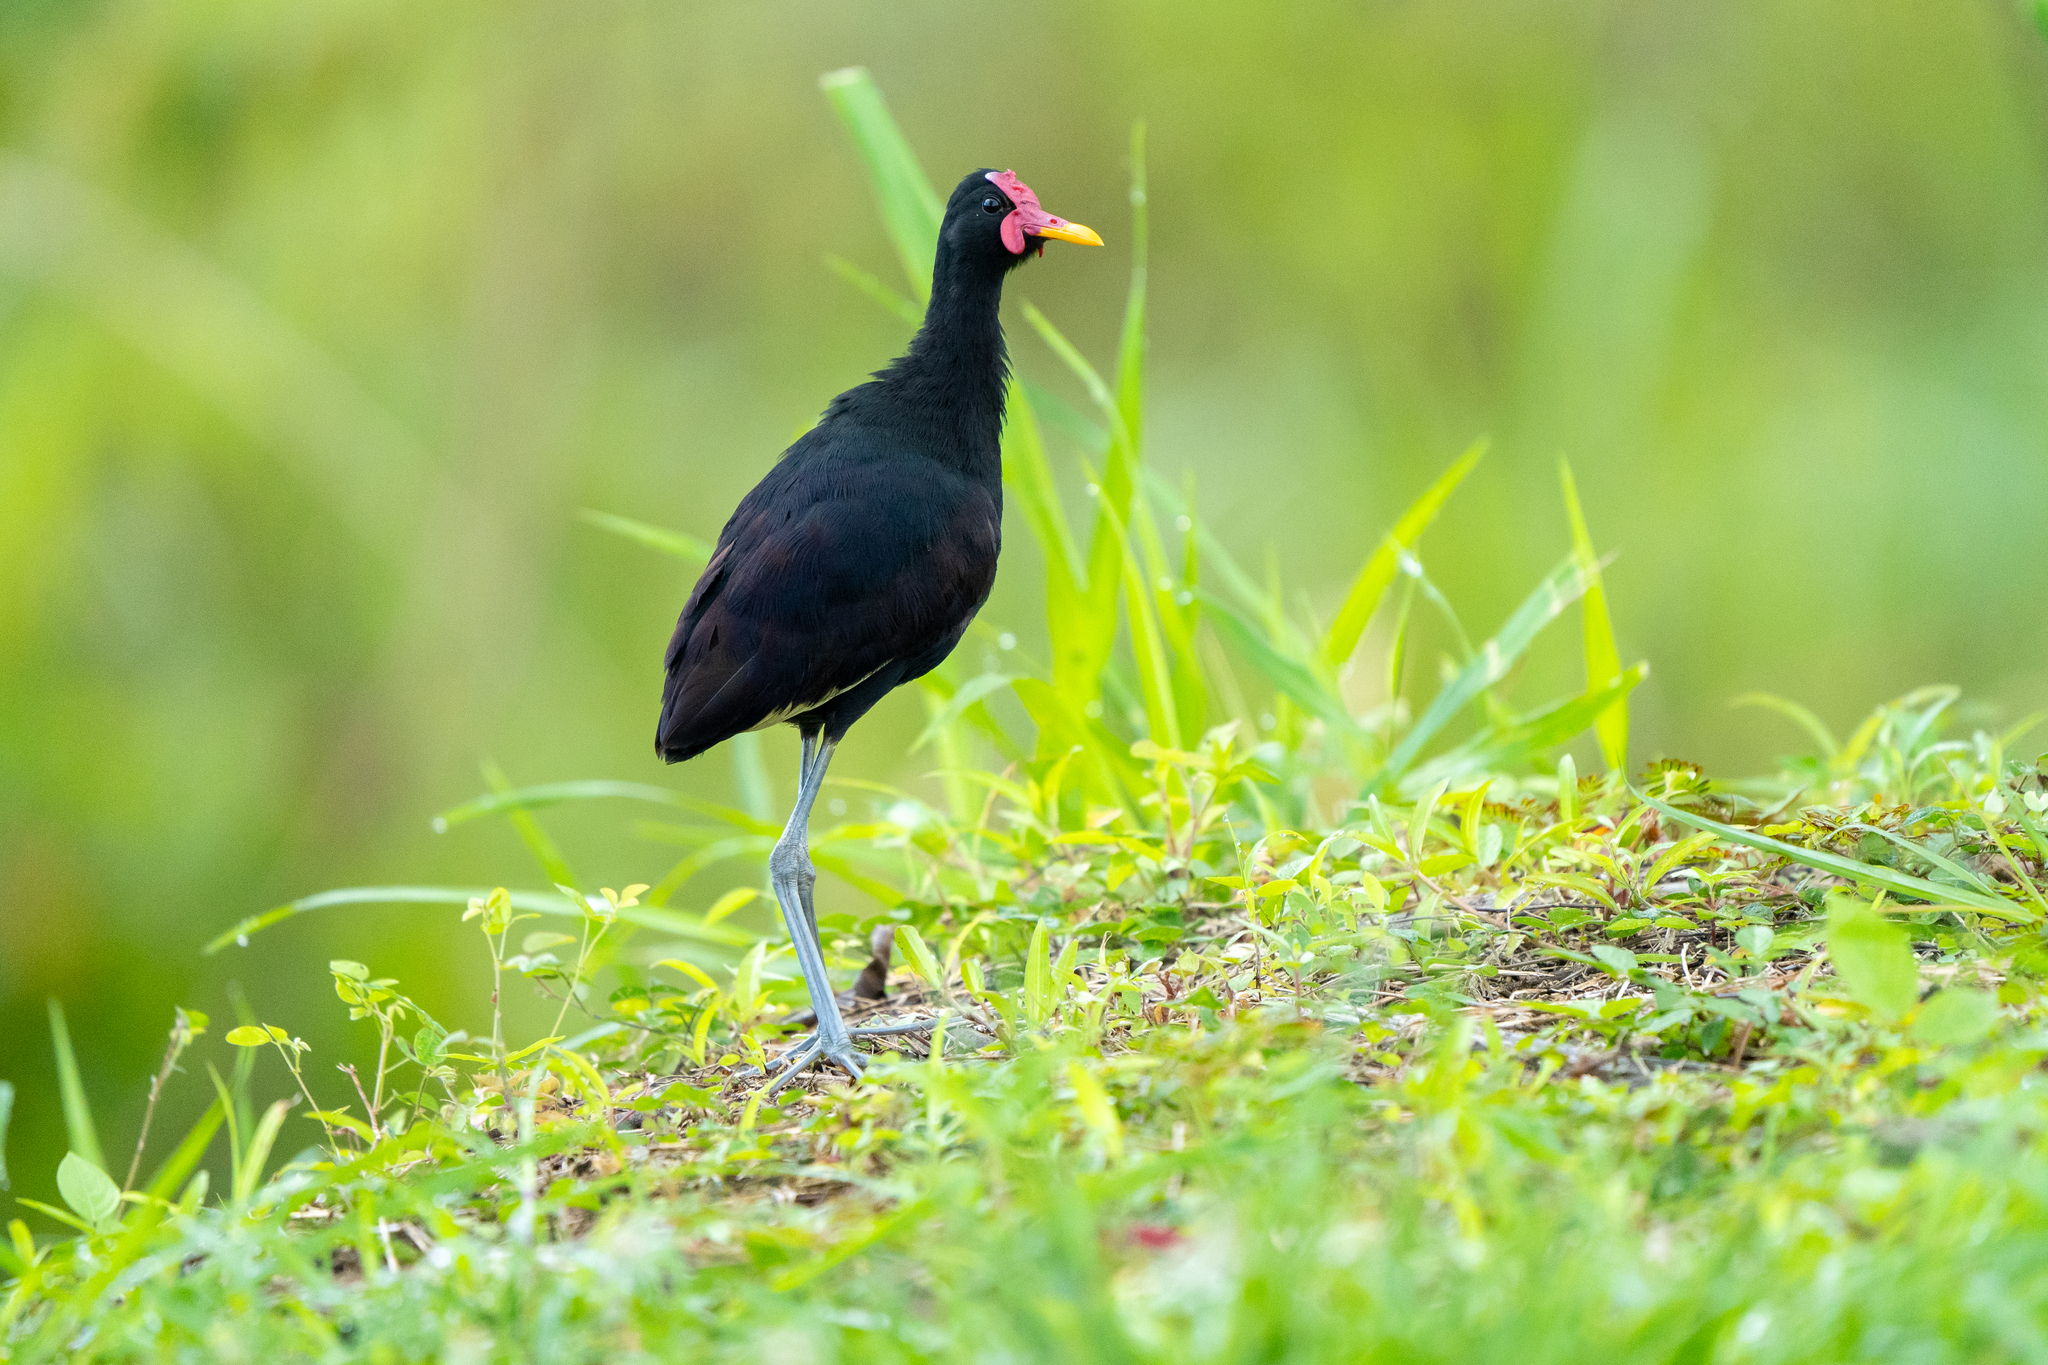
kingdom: Animalia
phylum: Chordata
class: Aves
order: Charadriiformes
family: Jacanidae
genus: Jacana
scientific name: Jacana jacana
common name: Wattled jacana
